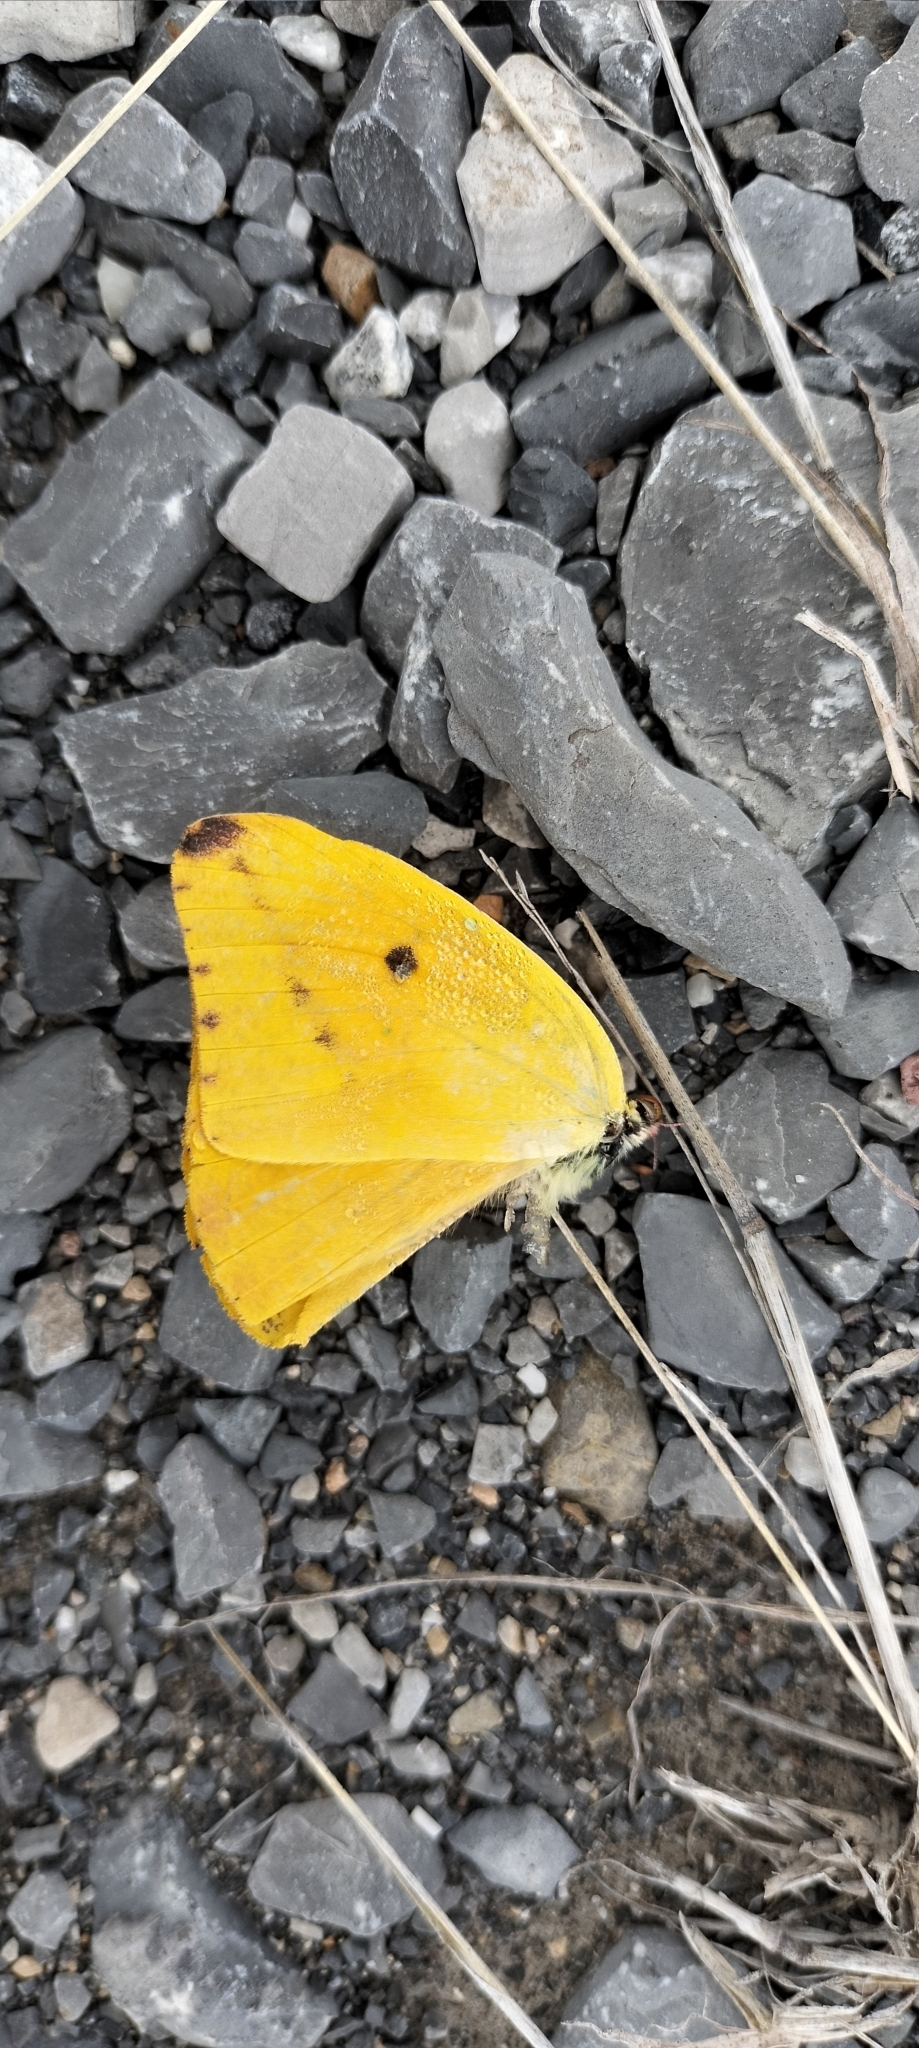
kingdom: Animalia
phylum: Arthropoda
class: Insecta
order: Lepidoptera
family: Pieridae
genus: Phoebis
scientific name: Phoebis agarithe
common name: Large orange sulphur
